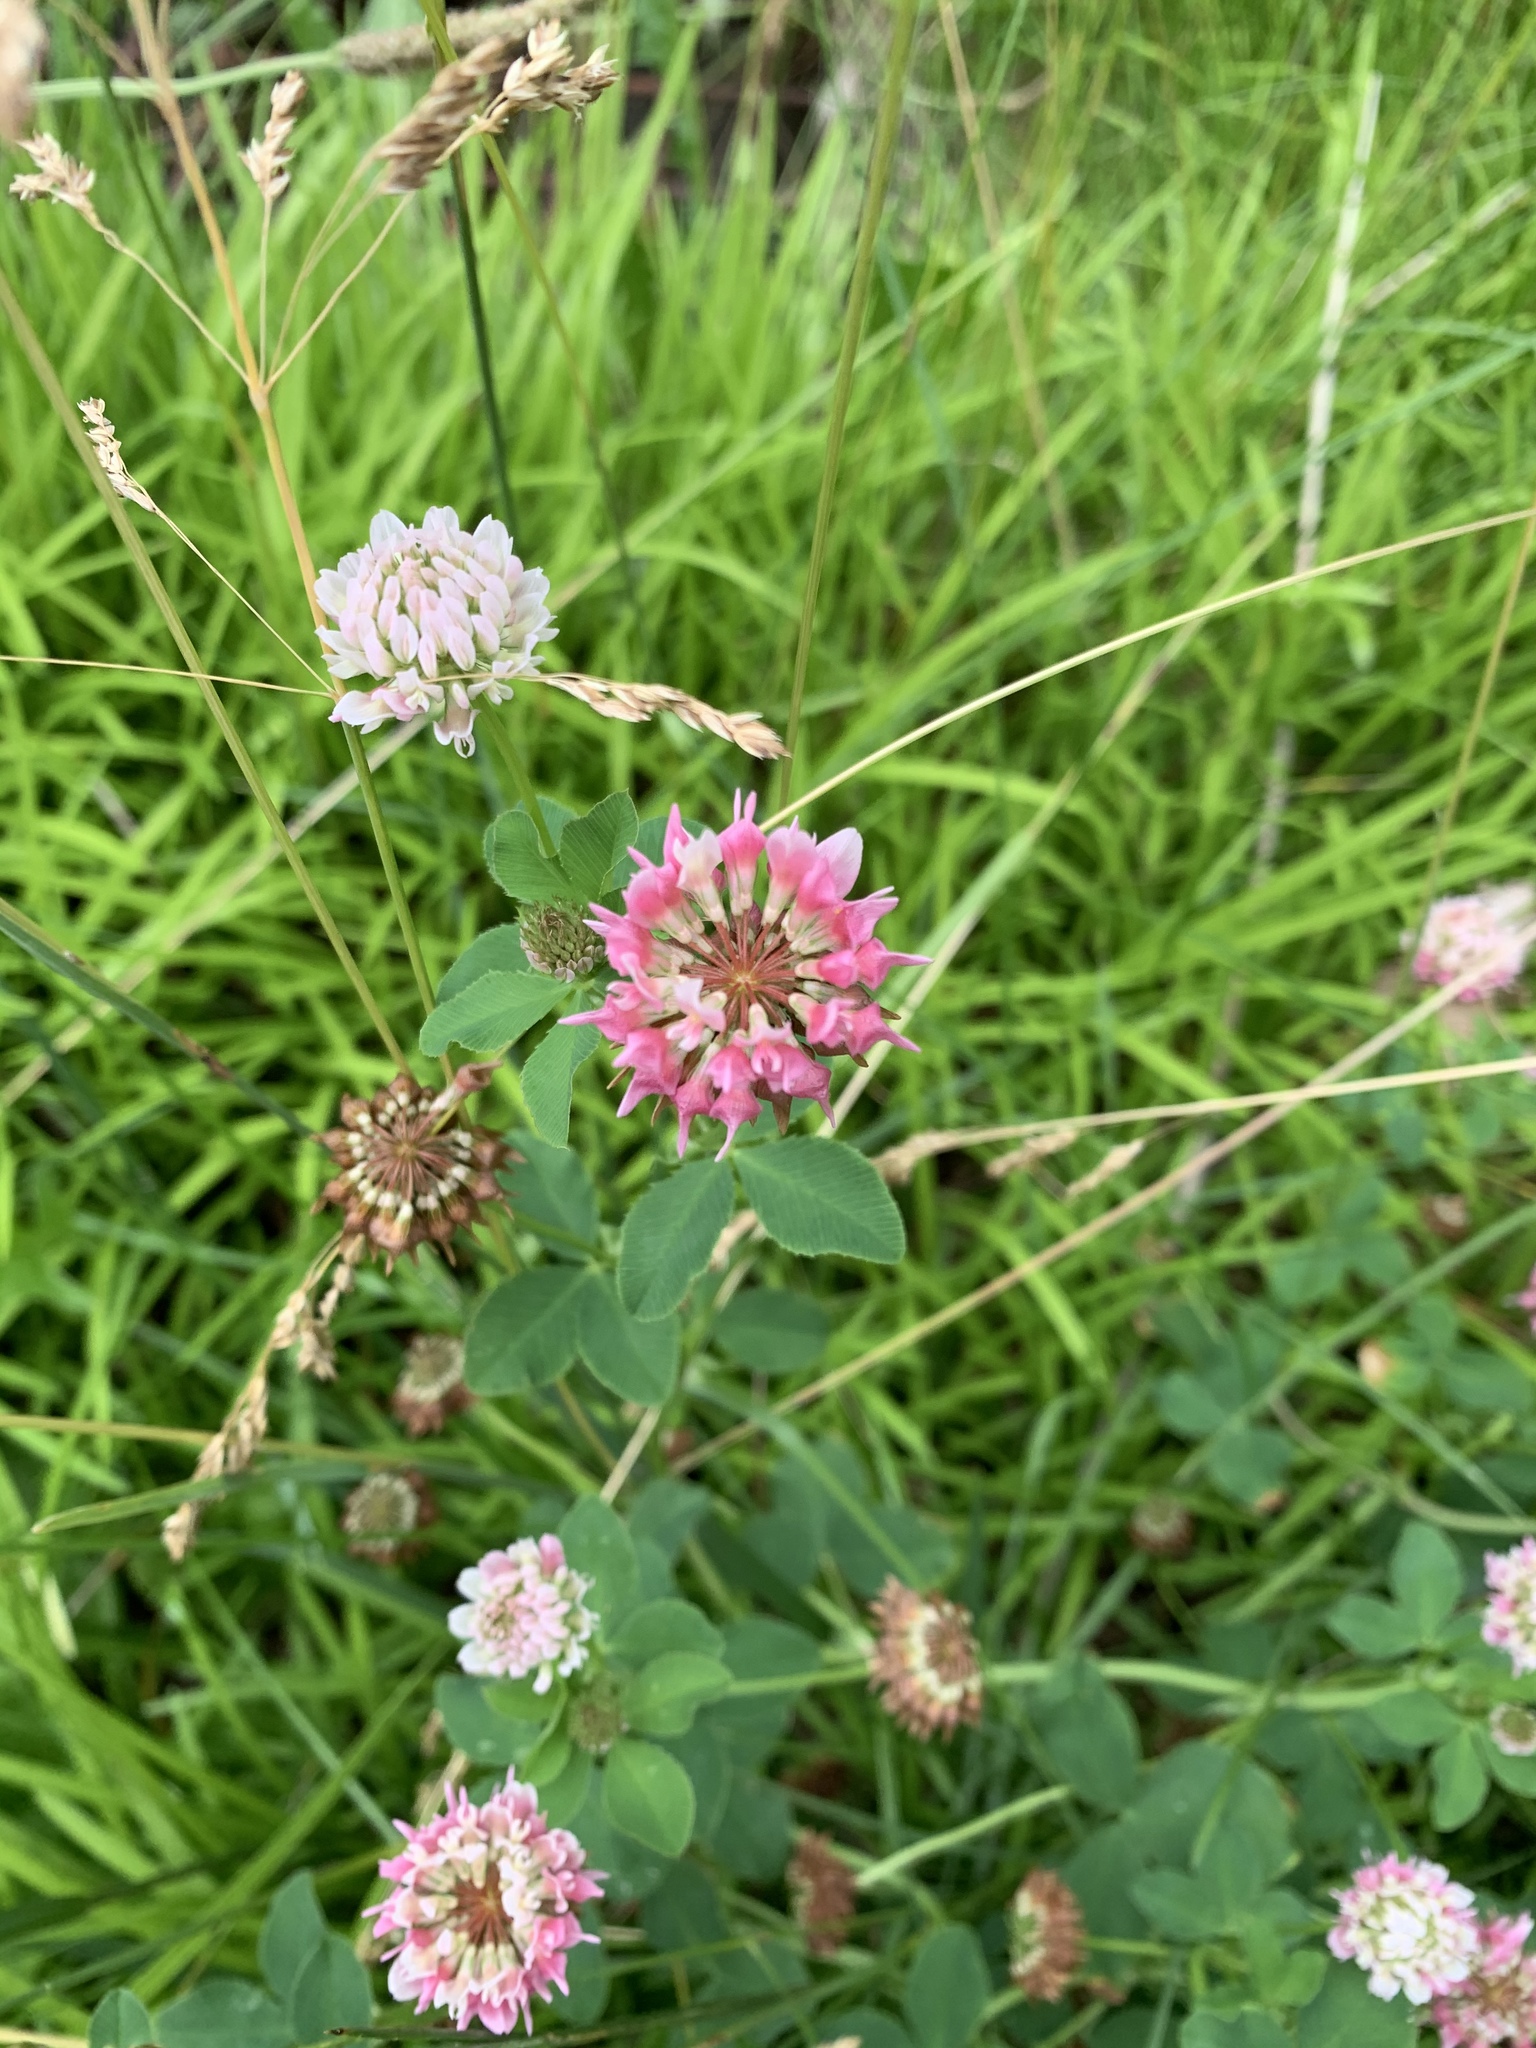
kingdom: Plantae
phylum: Tracheophyta
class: Magnoliopsida
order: Fabales
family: Fabaceae
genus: Trifolium
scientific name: Trifolium hybridum
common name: Alsike clover
